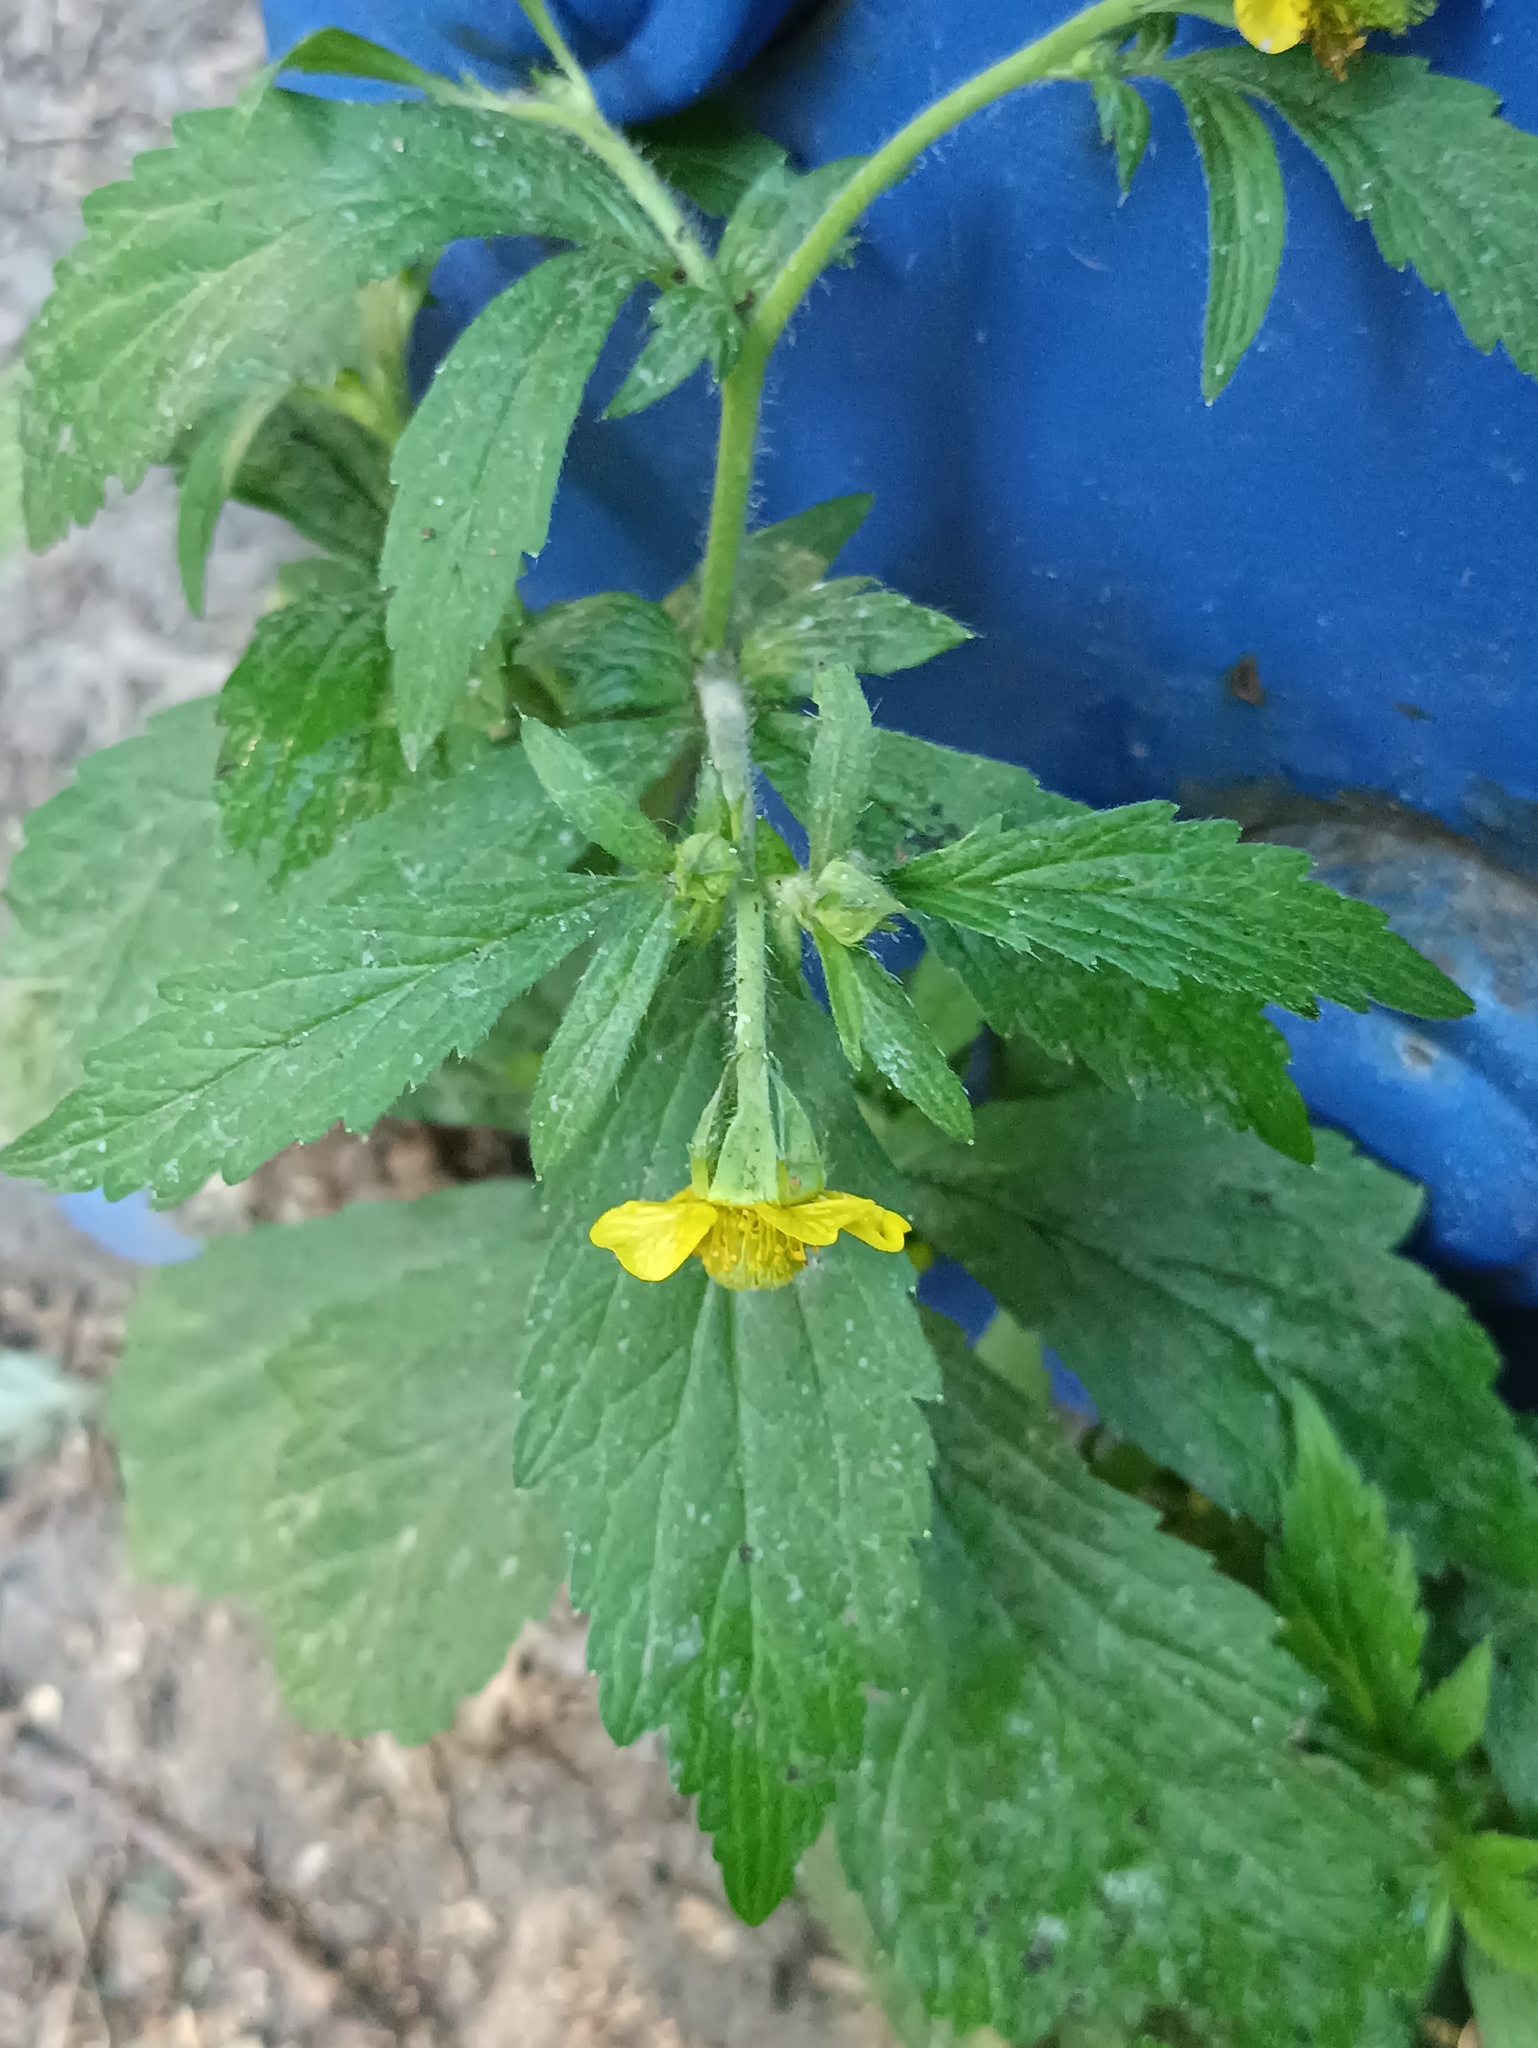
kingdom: Plantae
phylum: Tracheophyta
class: Magnoliopsida
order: Rosales
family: Rosaceae
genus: Geum
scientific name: Geum aleppicum
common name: Yellow avens
